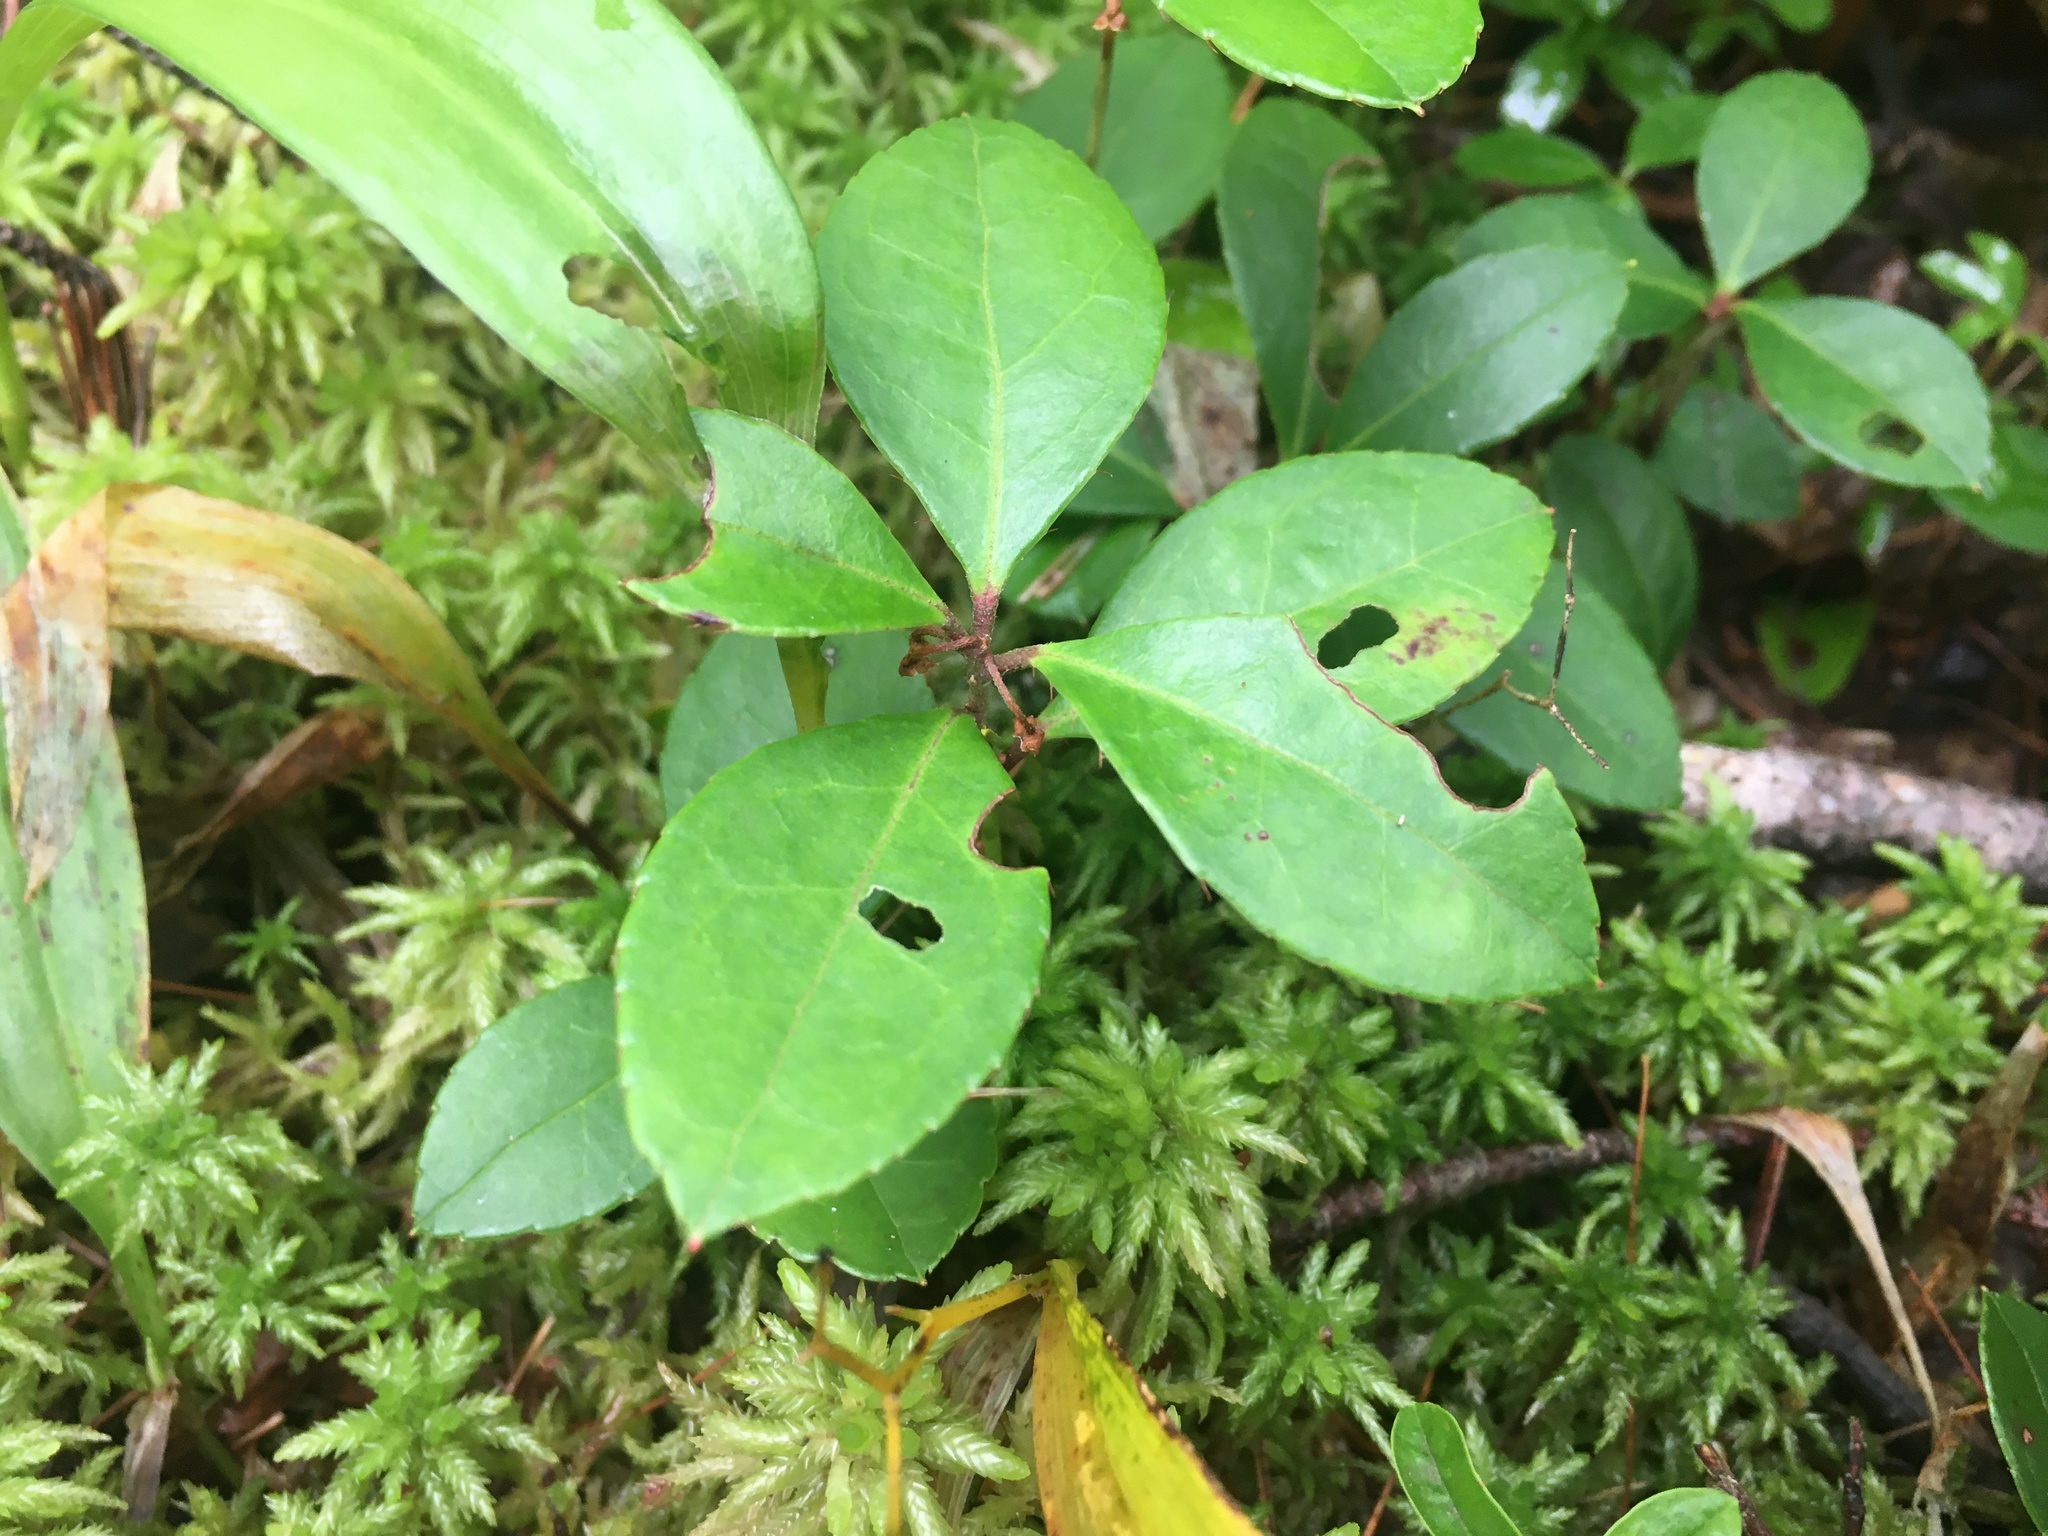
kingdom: Plantae
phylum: Tracheophyta
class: Magnoliopsida
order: Ericales
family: Ericaceae
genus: Gaultheria
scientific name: Gaultheria procumbens
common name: Checkerberry
